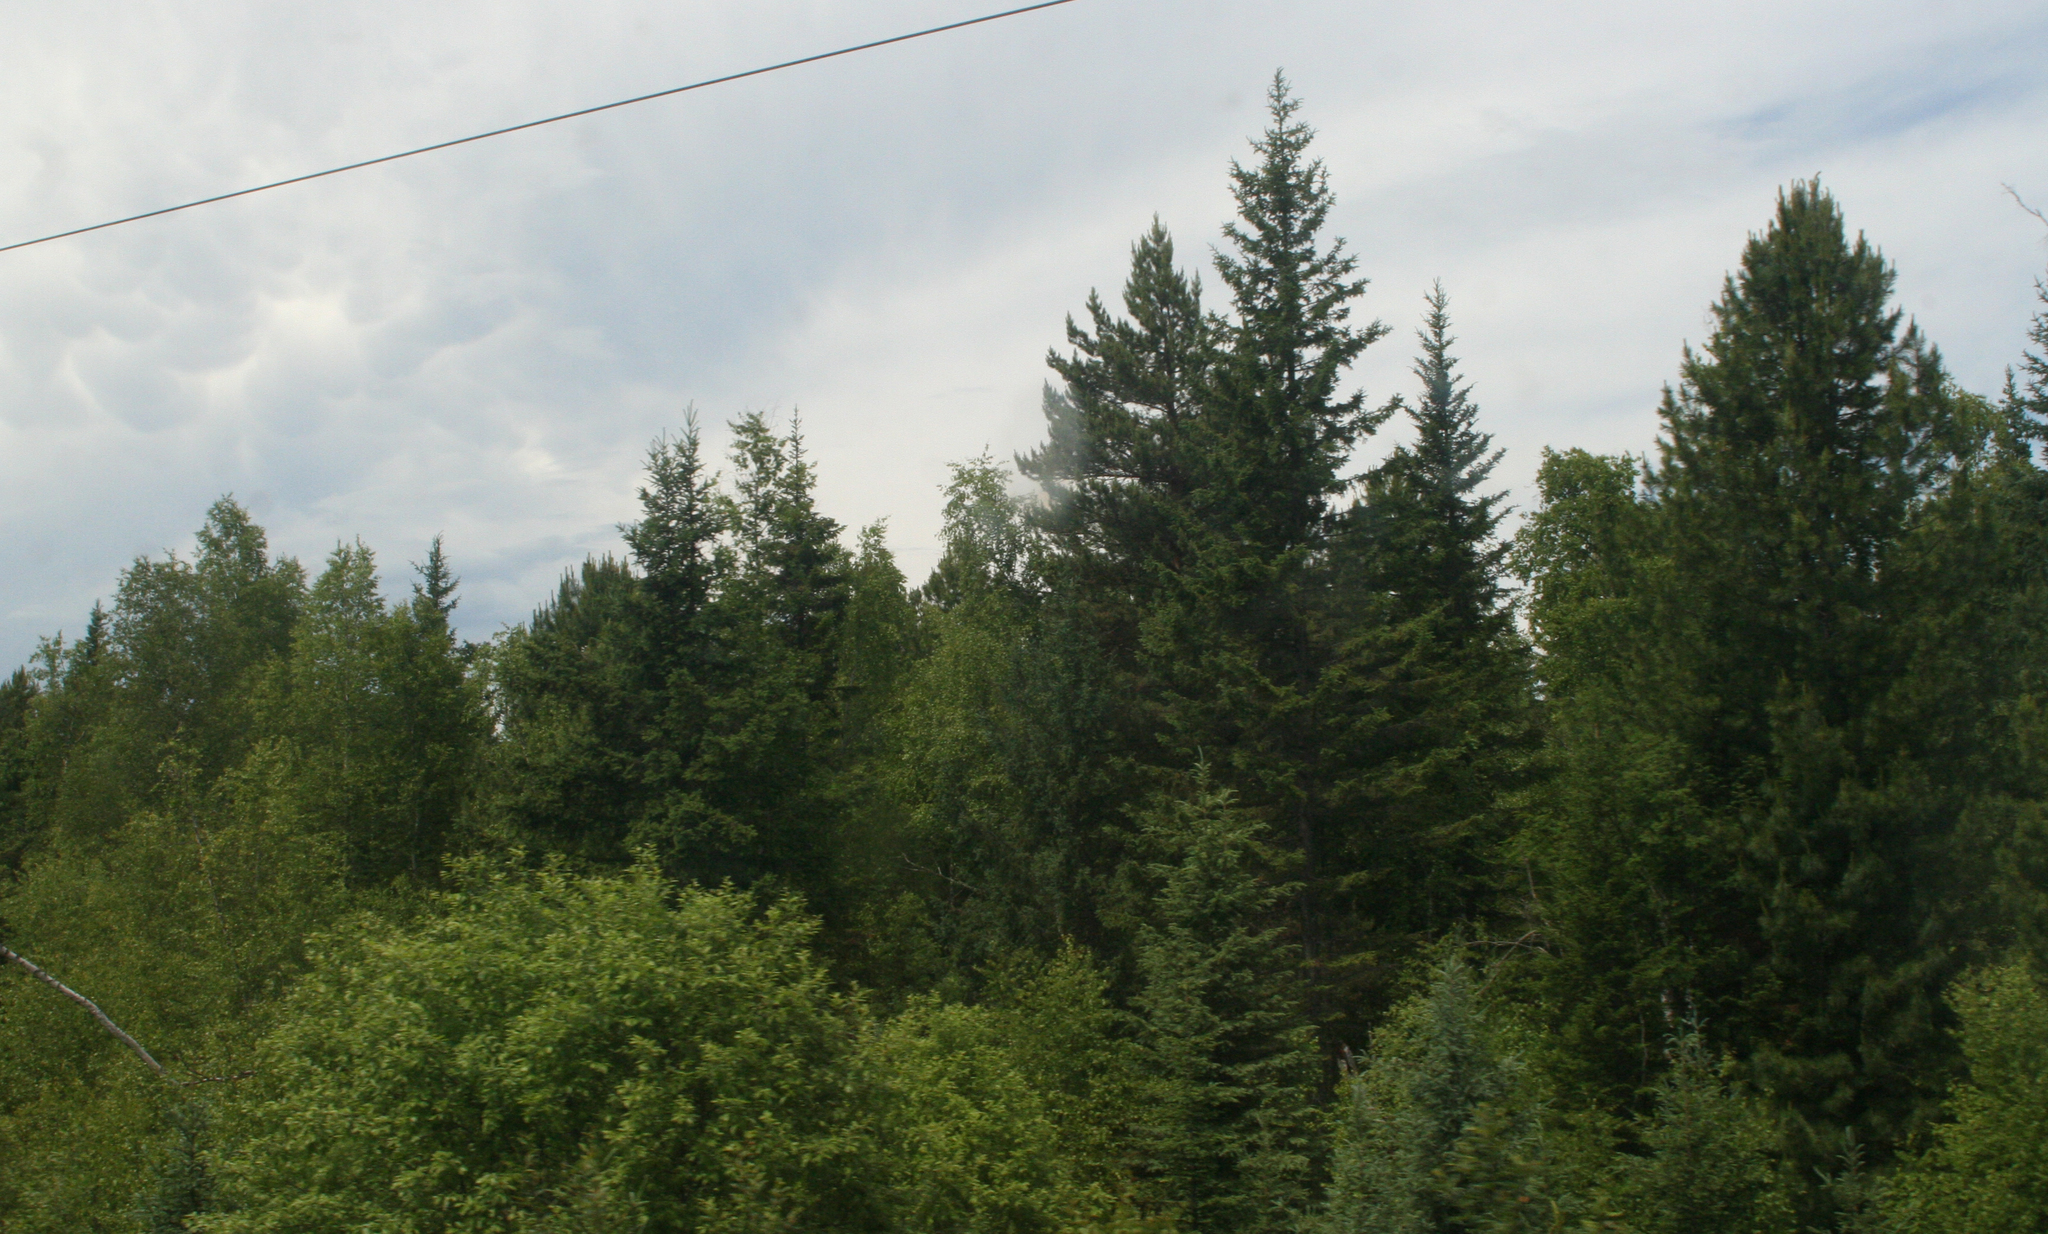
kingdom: Plantae
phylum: Tracheophyta
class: Pinopsida
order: Pinales
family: Pinaceae
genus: Picea
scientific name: Picea obovata
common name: Siberian spruce
